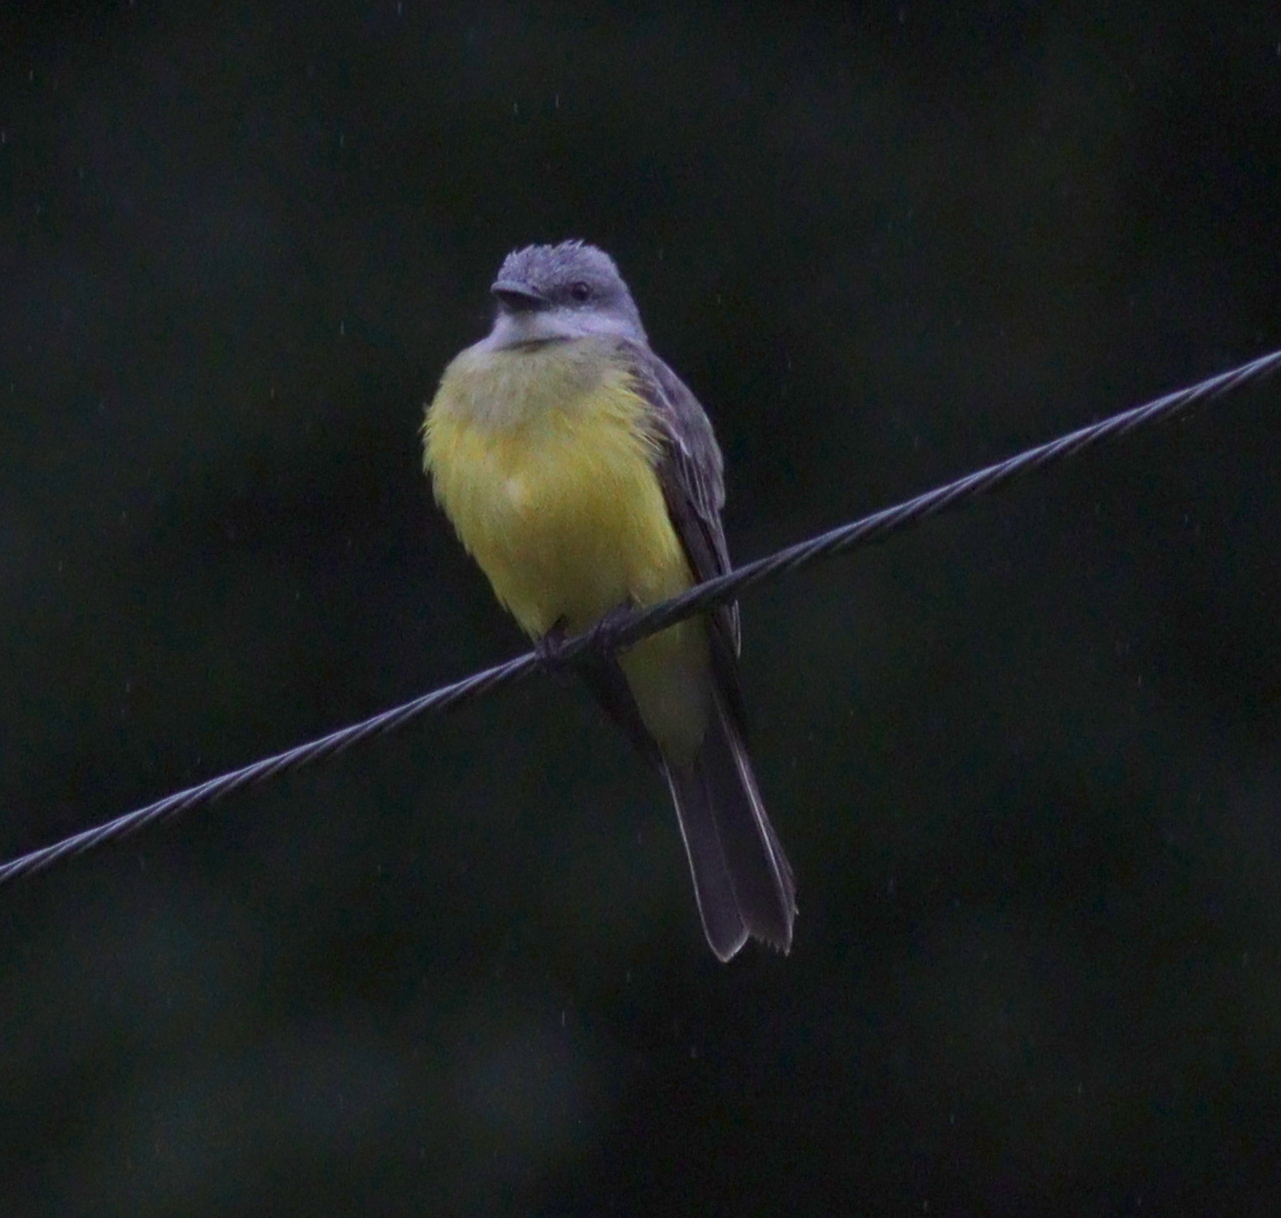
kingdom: Animalia
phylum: Chordata
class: Aves
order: Passeriformes
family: Tyrannidae
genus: Tyrannus
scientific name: Tyrannus melancholicus
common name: Tropical kingbird
